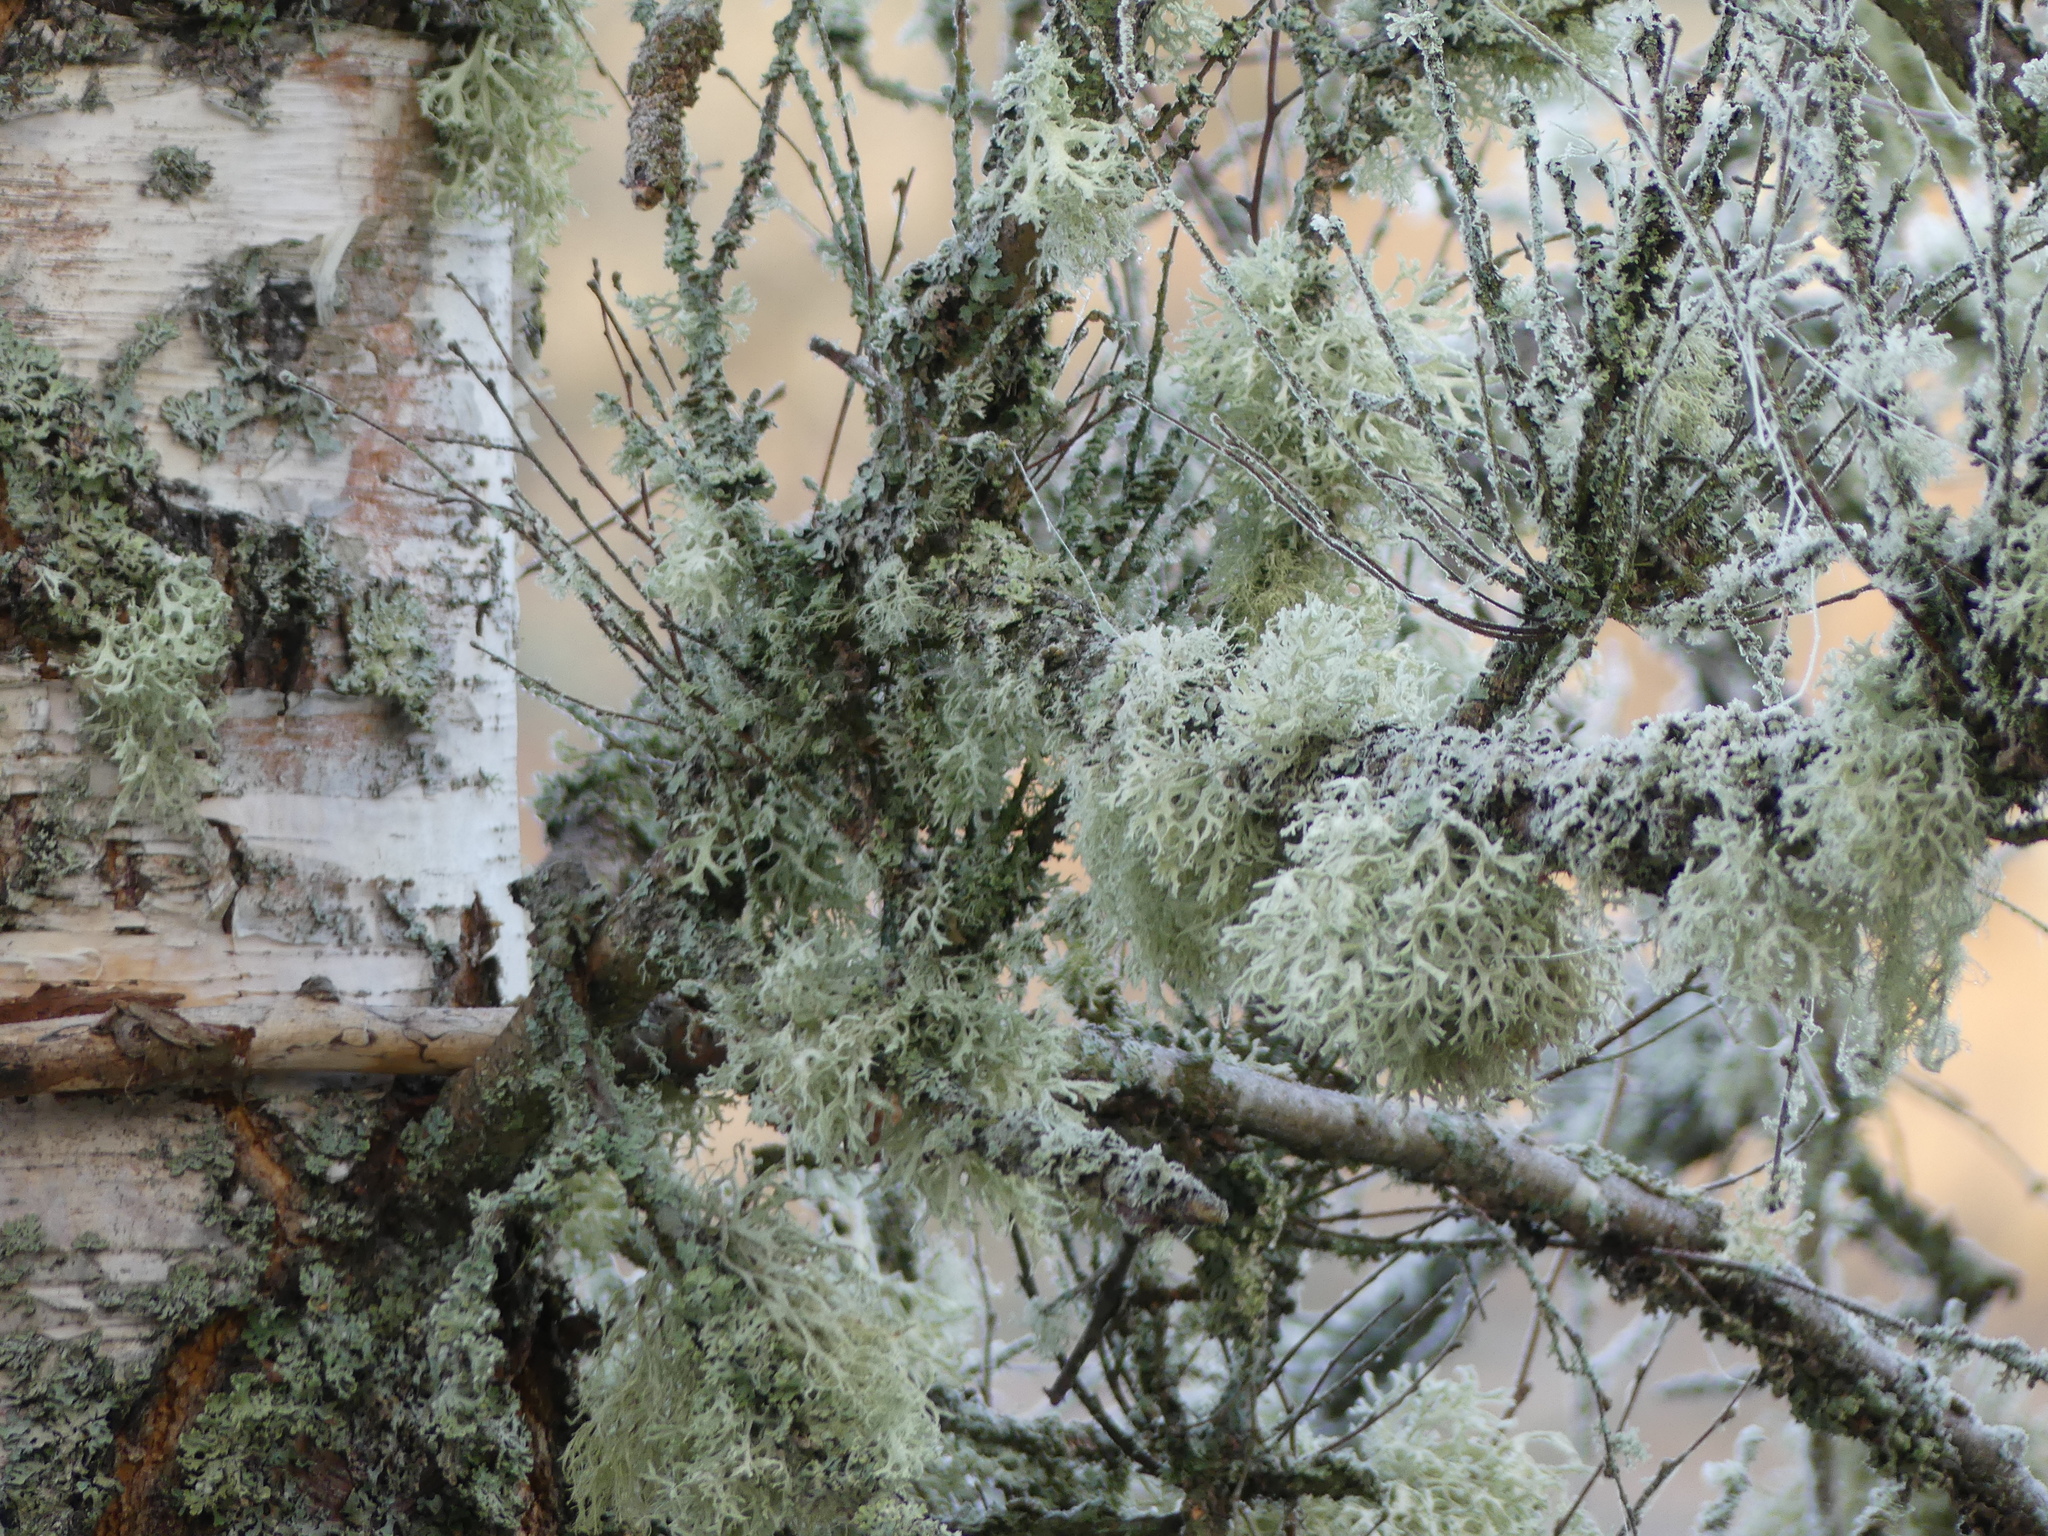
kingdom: Fungi
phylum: Ascomycota
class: Lecanoromycetes
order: Lecanorales
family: Parmeliaceae
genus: Evernia
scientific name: Evernia prunastri
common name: Oak moss
